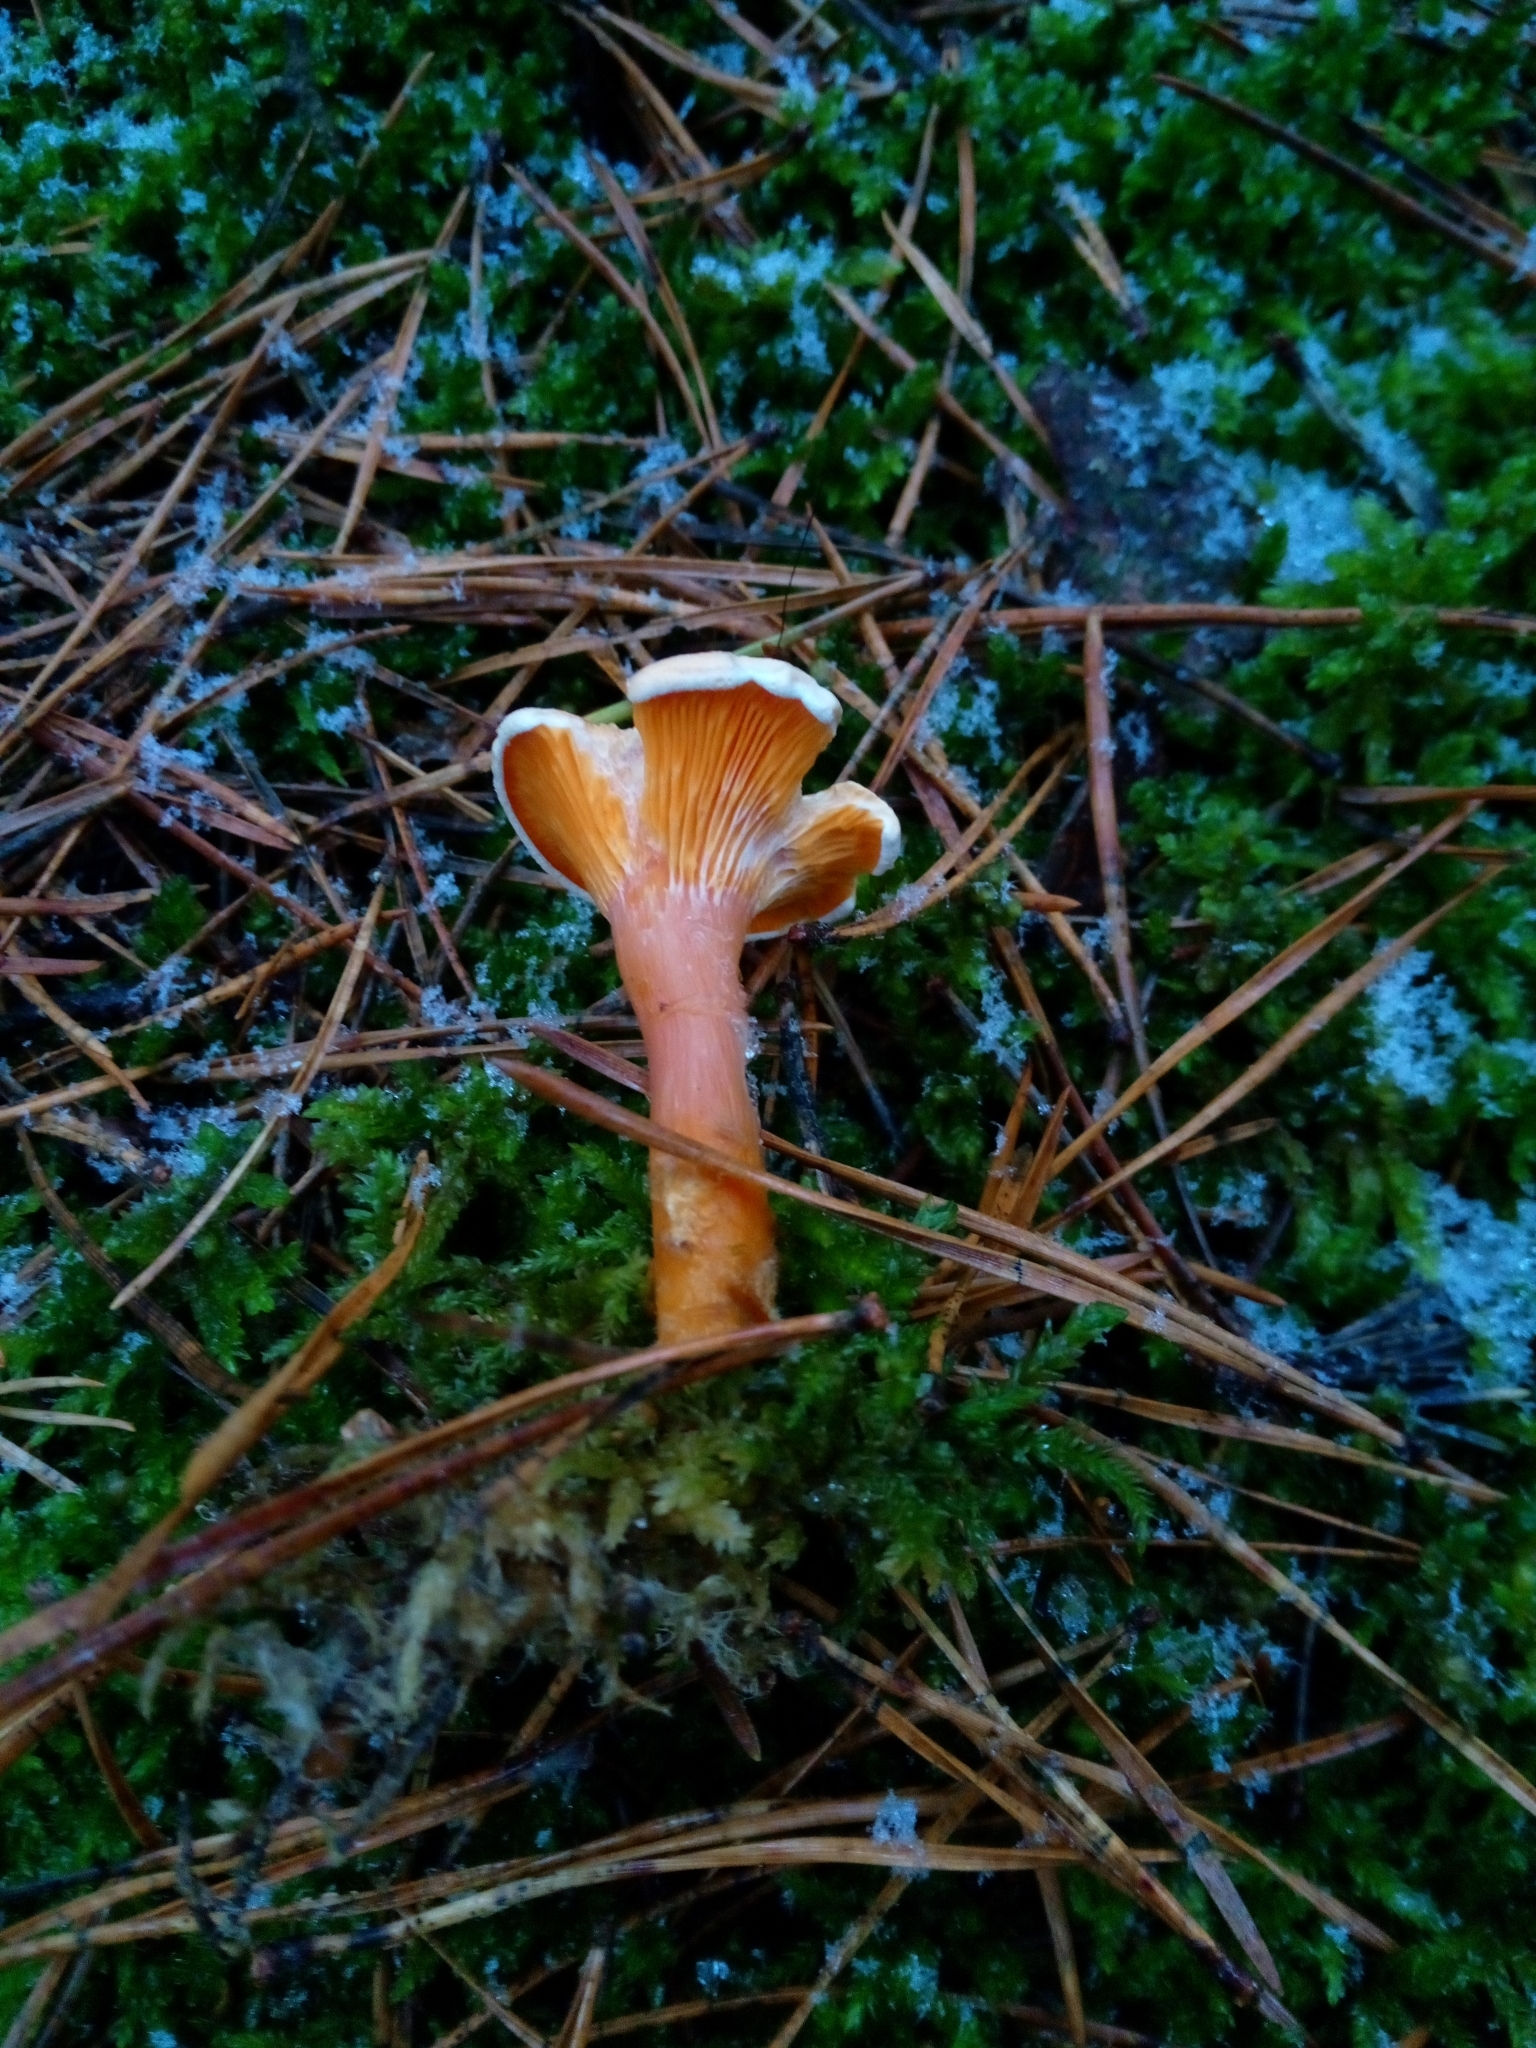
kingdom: Fungi
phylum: Basidiomycota
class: Agaricomycetes
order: Boletales
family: Hygrophoropsidaceae
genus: Hygrophoropsis
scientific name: Hygrophoropsis aurantiaca
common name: False chanterelle
